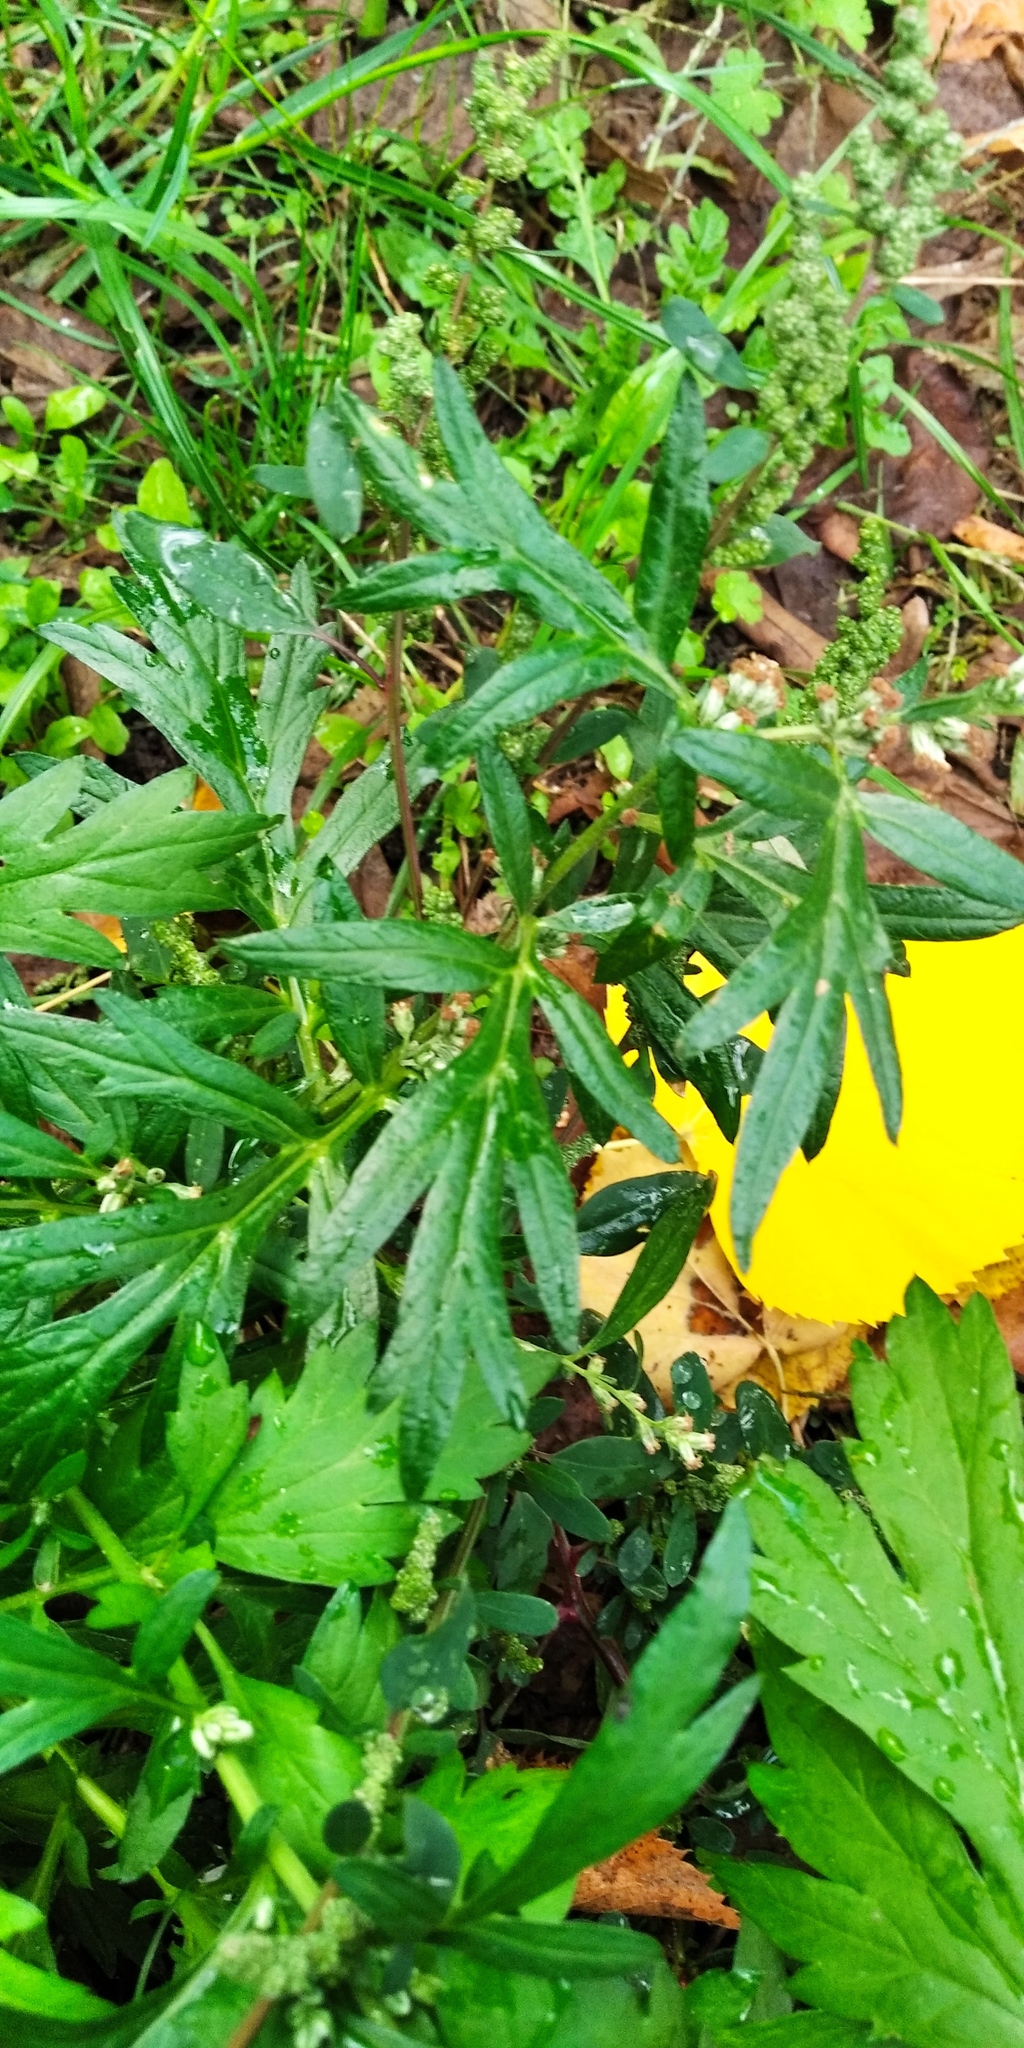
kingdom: Plantae
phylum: Tracheophyta
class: Magnoliopsida
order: Asterales
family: Asteraceae
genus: Artemisia
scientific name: Artemisia vulgaris
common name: Mugwort
